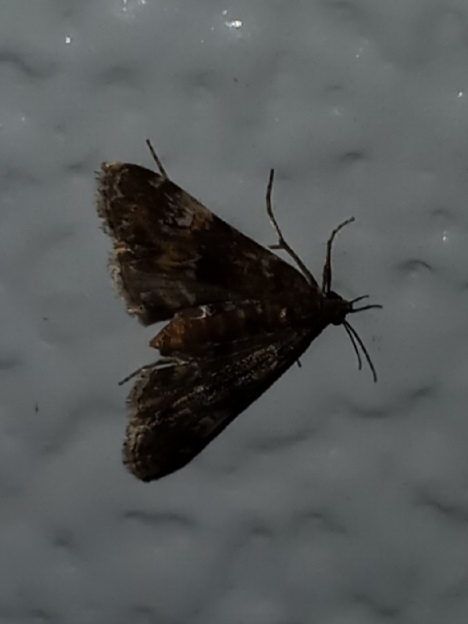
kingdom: Animalia
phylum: Arthropoda
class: Insecta
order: Lepidoptera
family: Crambidae
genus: Elophila
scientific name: Elophila obliteralis
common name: Waterlily leafcutter moth
